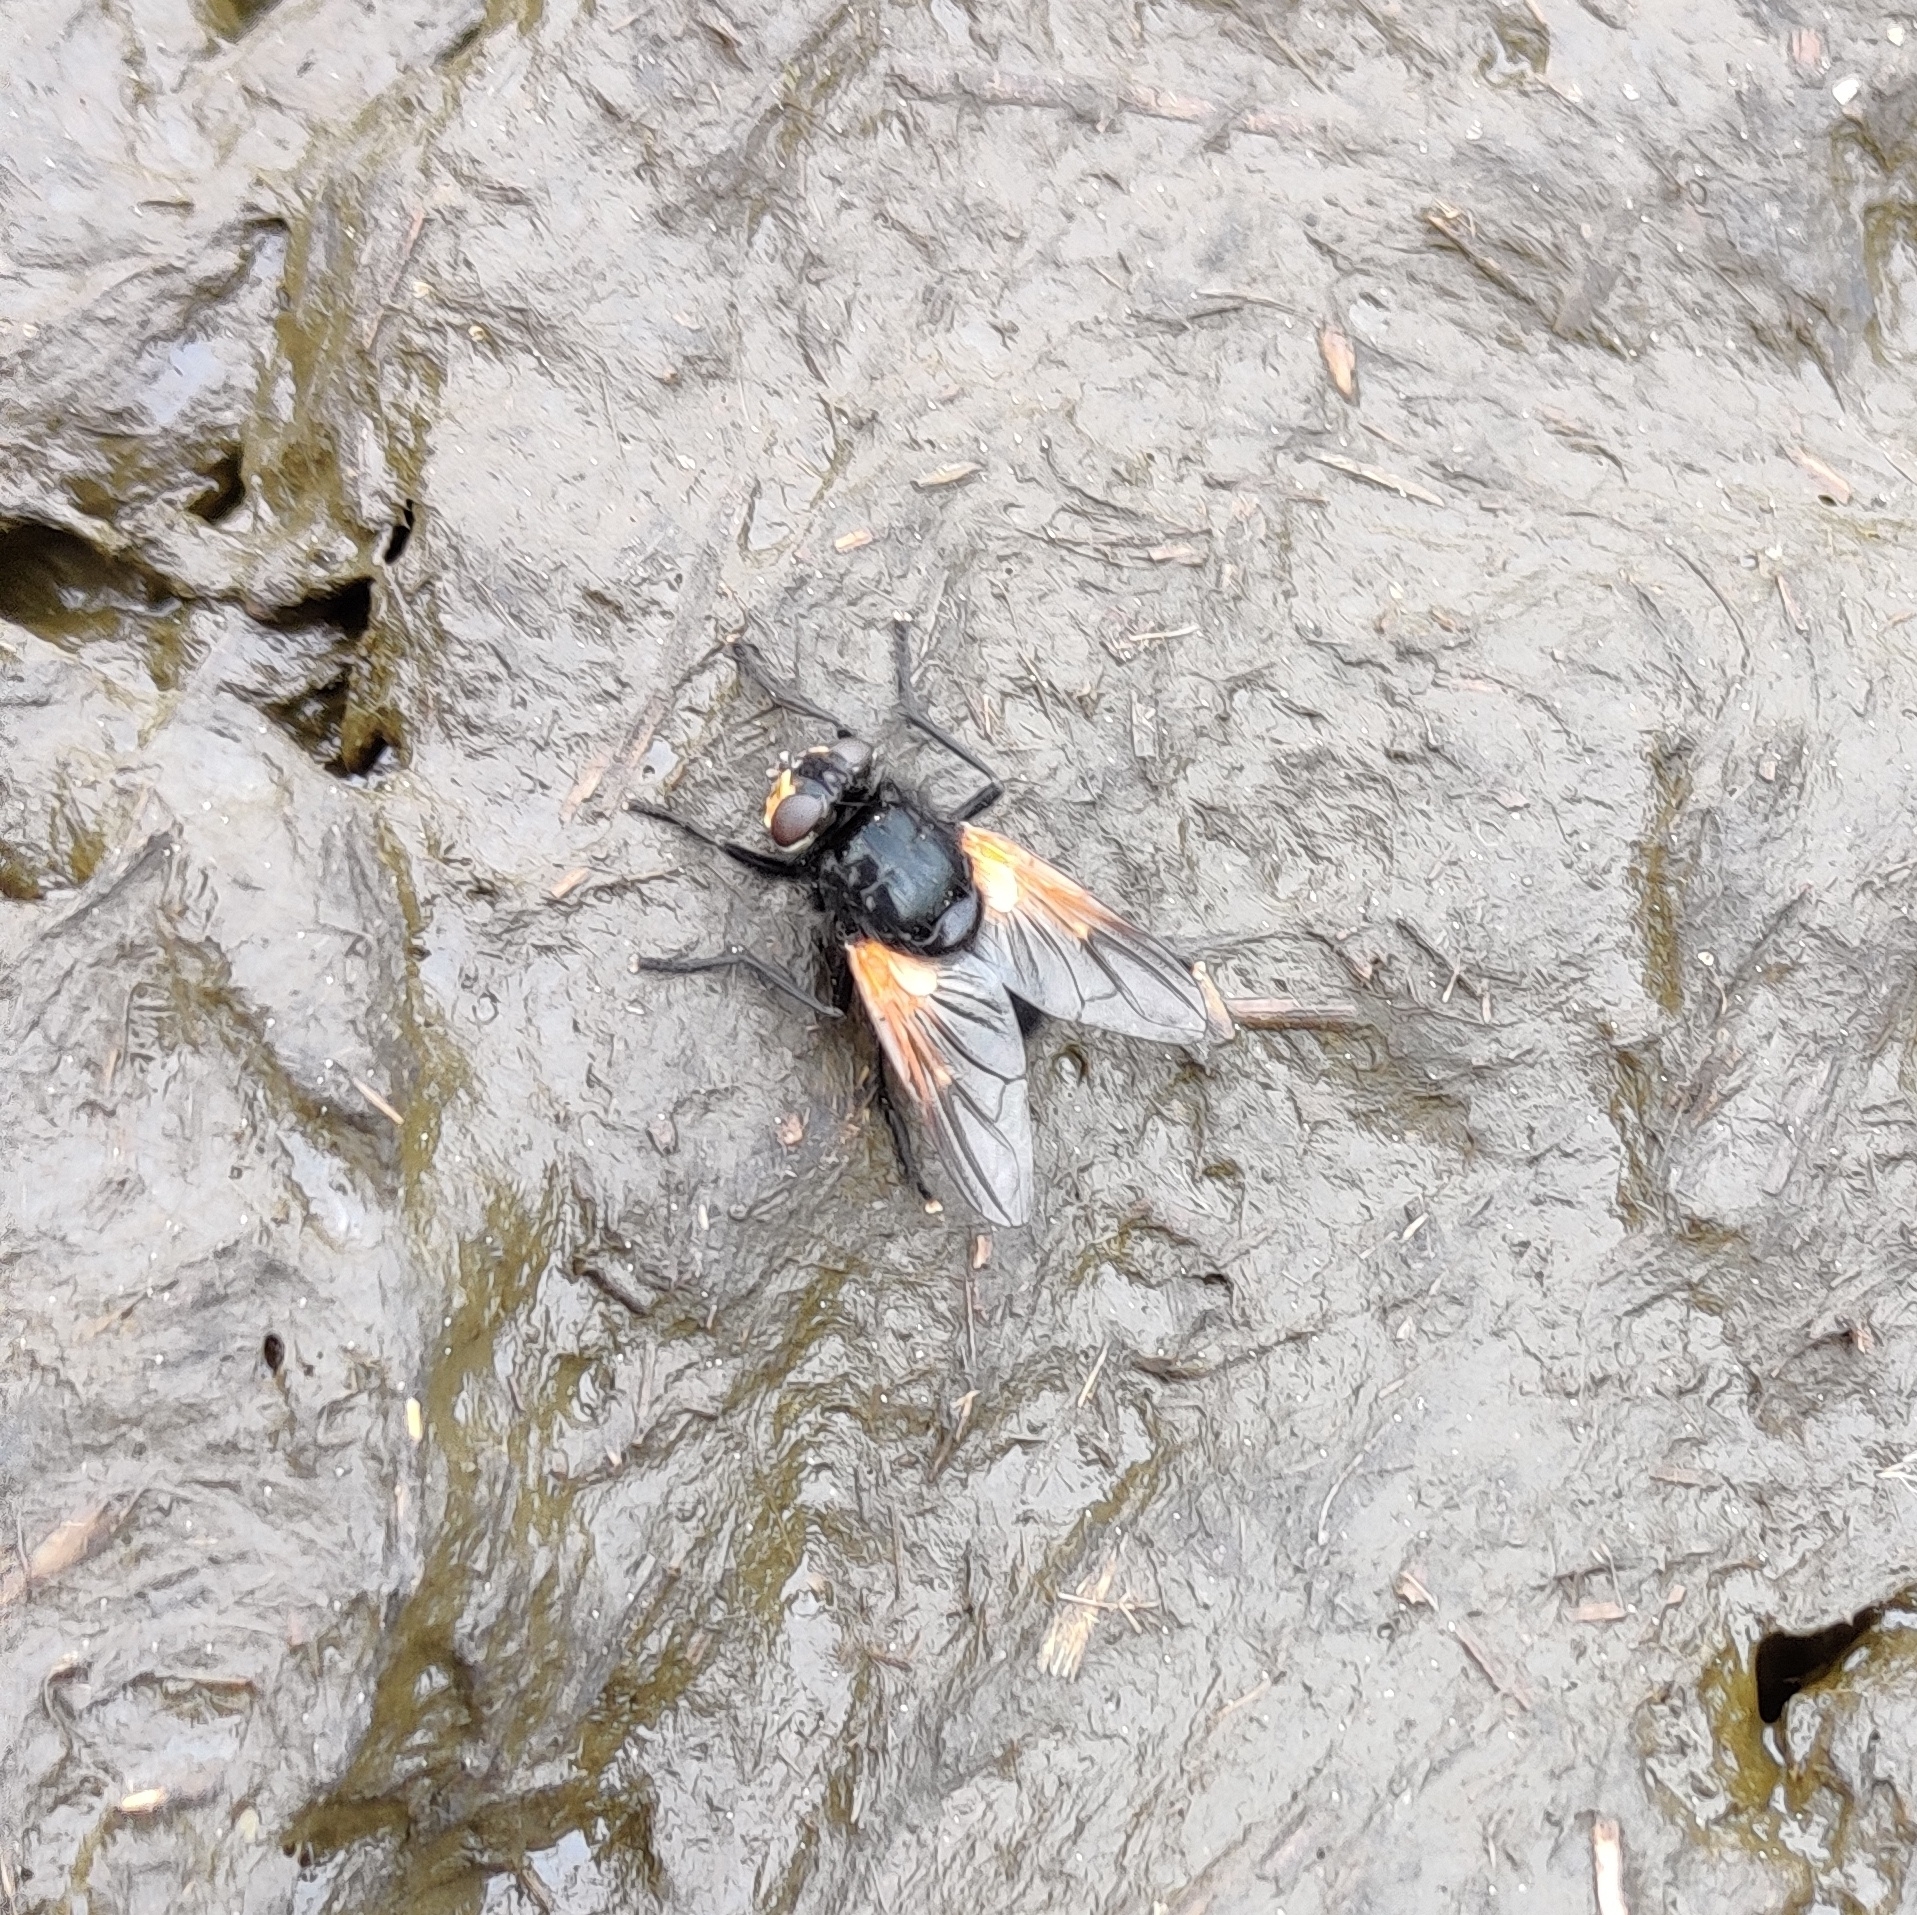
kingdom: Animalia
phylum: Arthropoda
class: Insecta
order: Diptera
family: Muscidae
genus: Mesembrina
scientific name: Mesembrina meridiana
